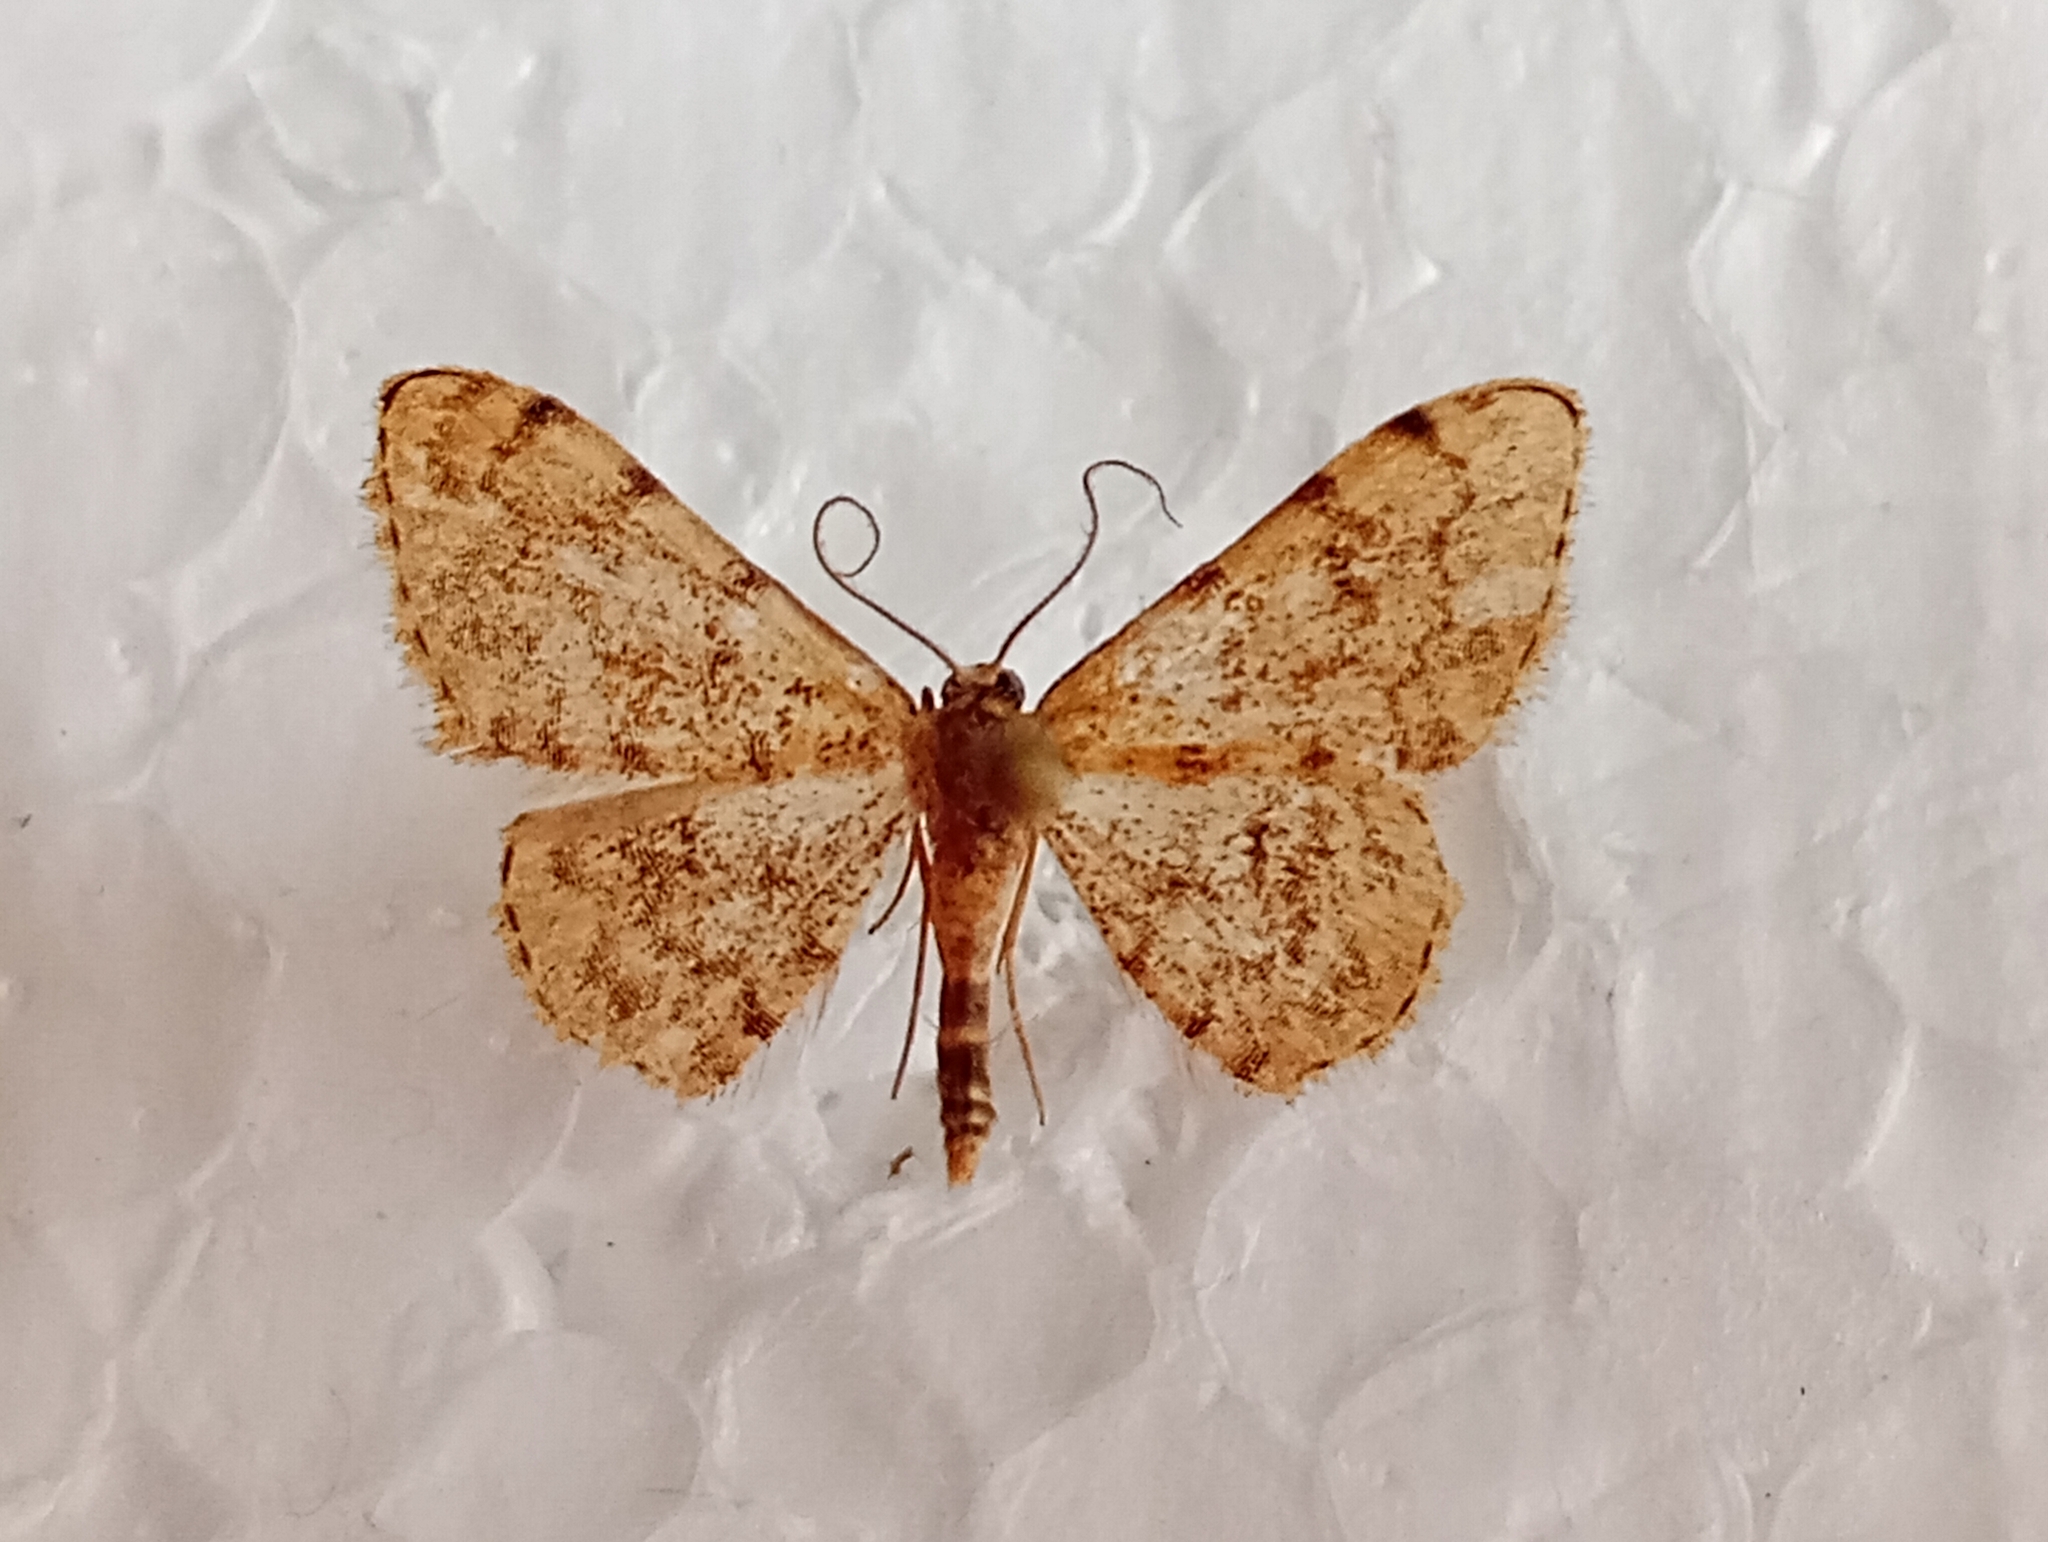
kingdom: Animalia
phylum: Arthropoda
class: Insecta
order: Lepidoptera
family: Geometridae
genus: Glossotrophia
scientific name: Glossotrophia asellaria
